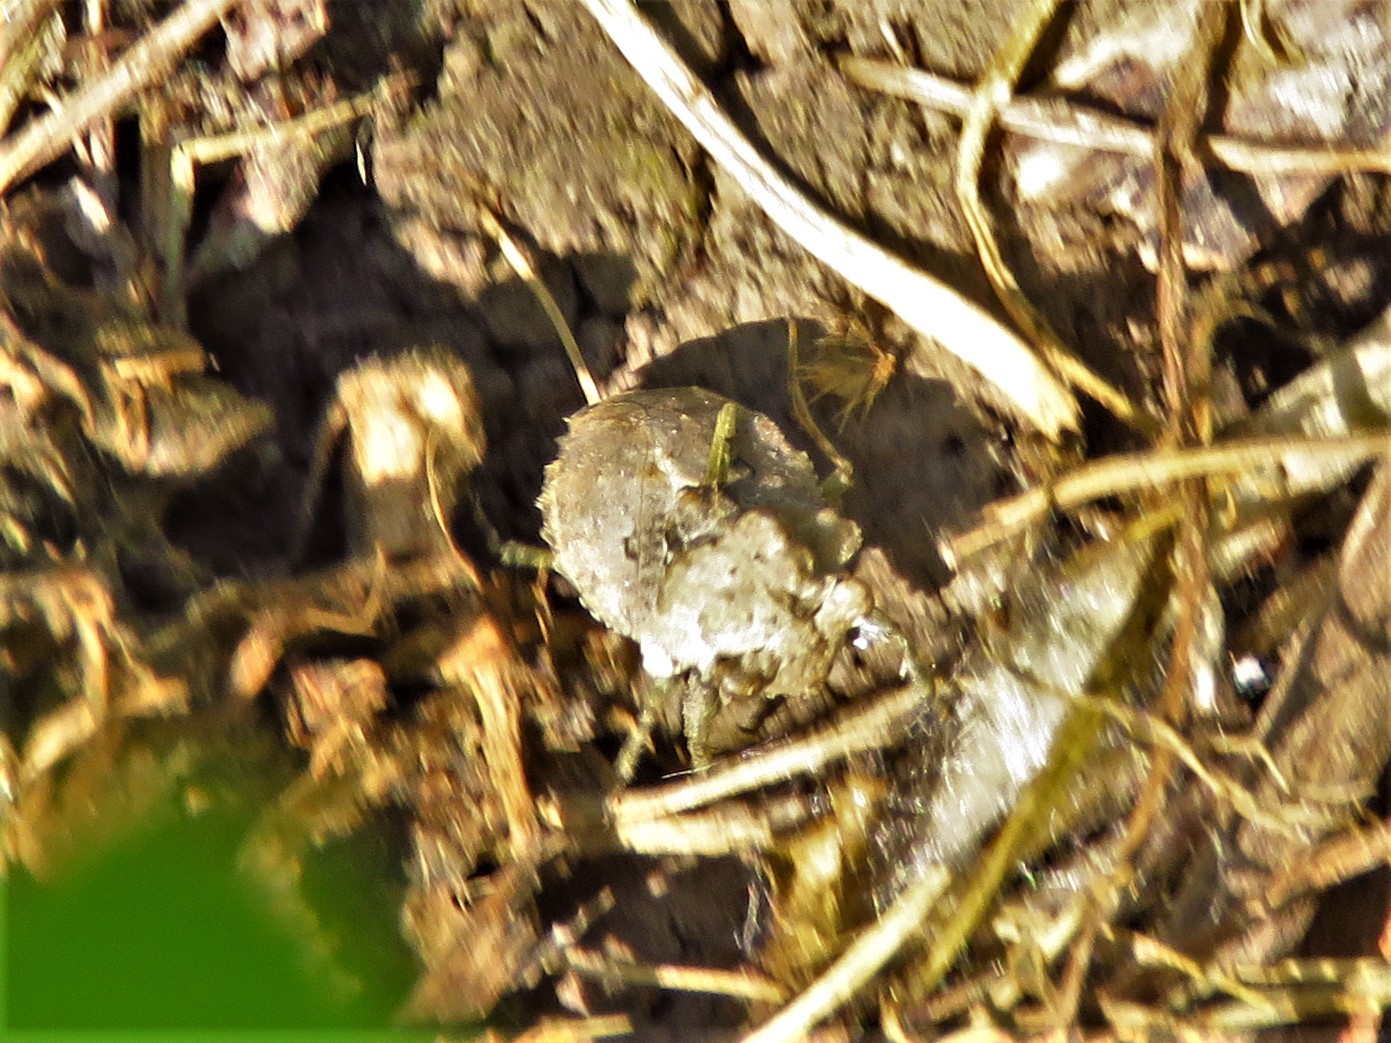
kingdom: Animalia
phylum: Arthropoda
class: Insecta
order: Hemiptera
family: Gelastocoridae
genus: Gelastocoris
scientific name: Gelastocoris oculatus
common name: Toad bug
